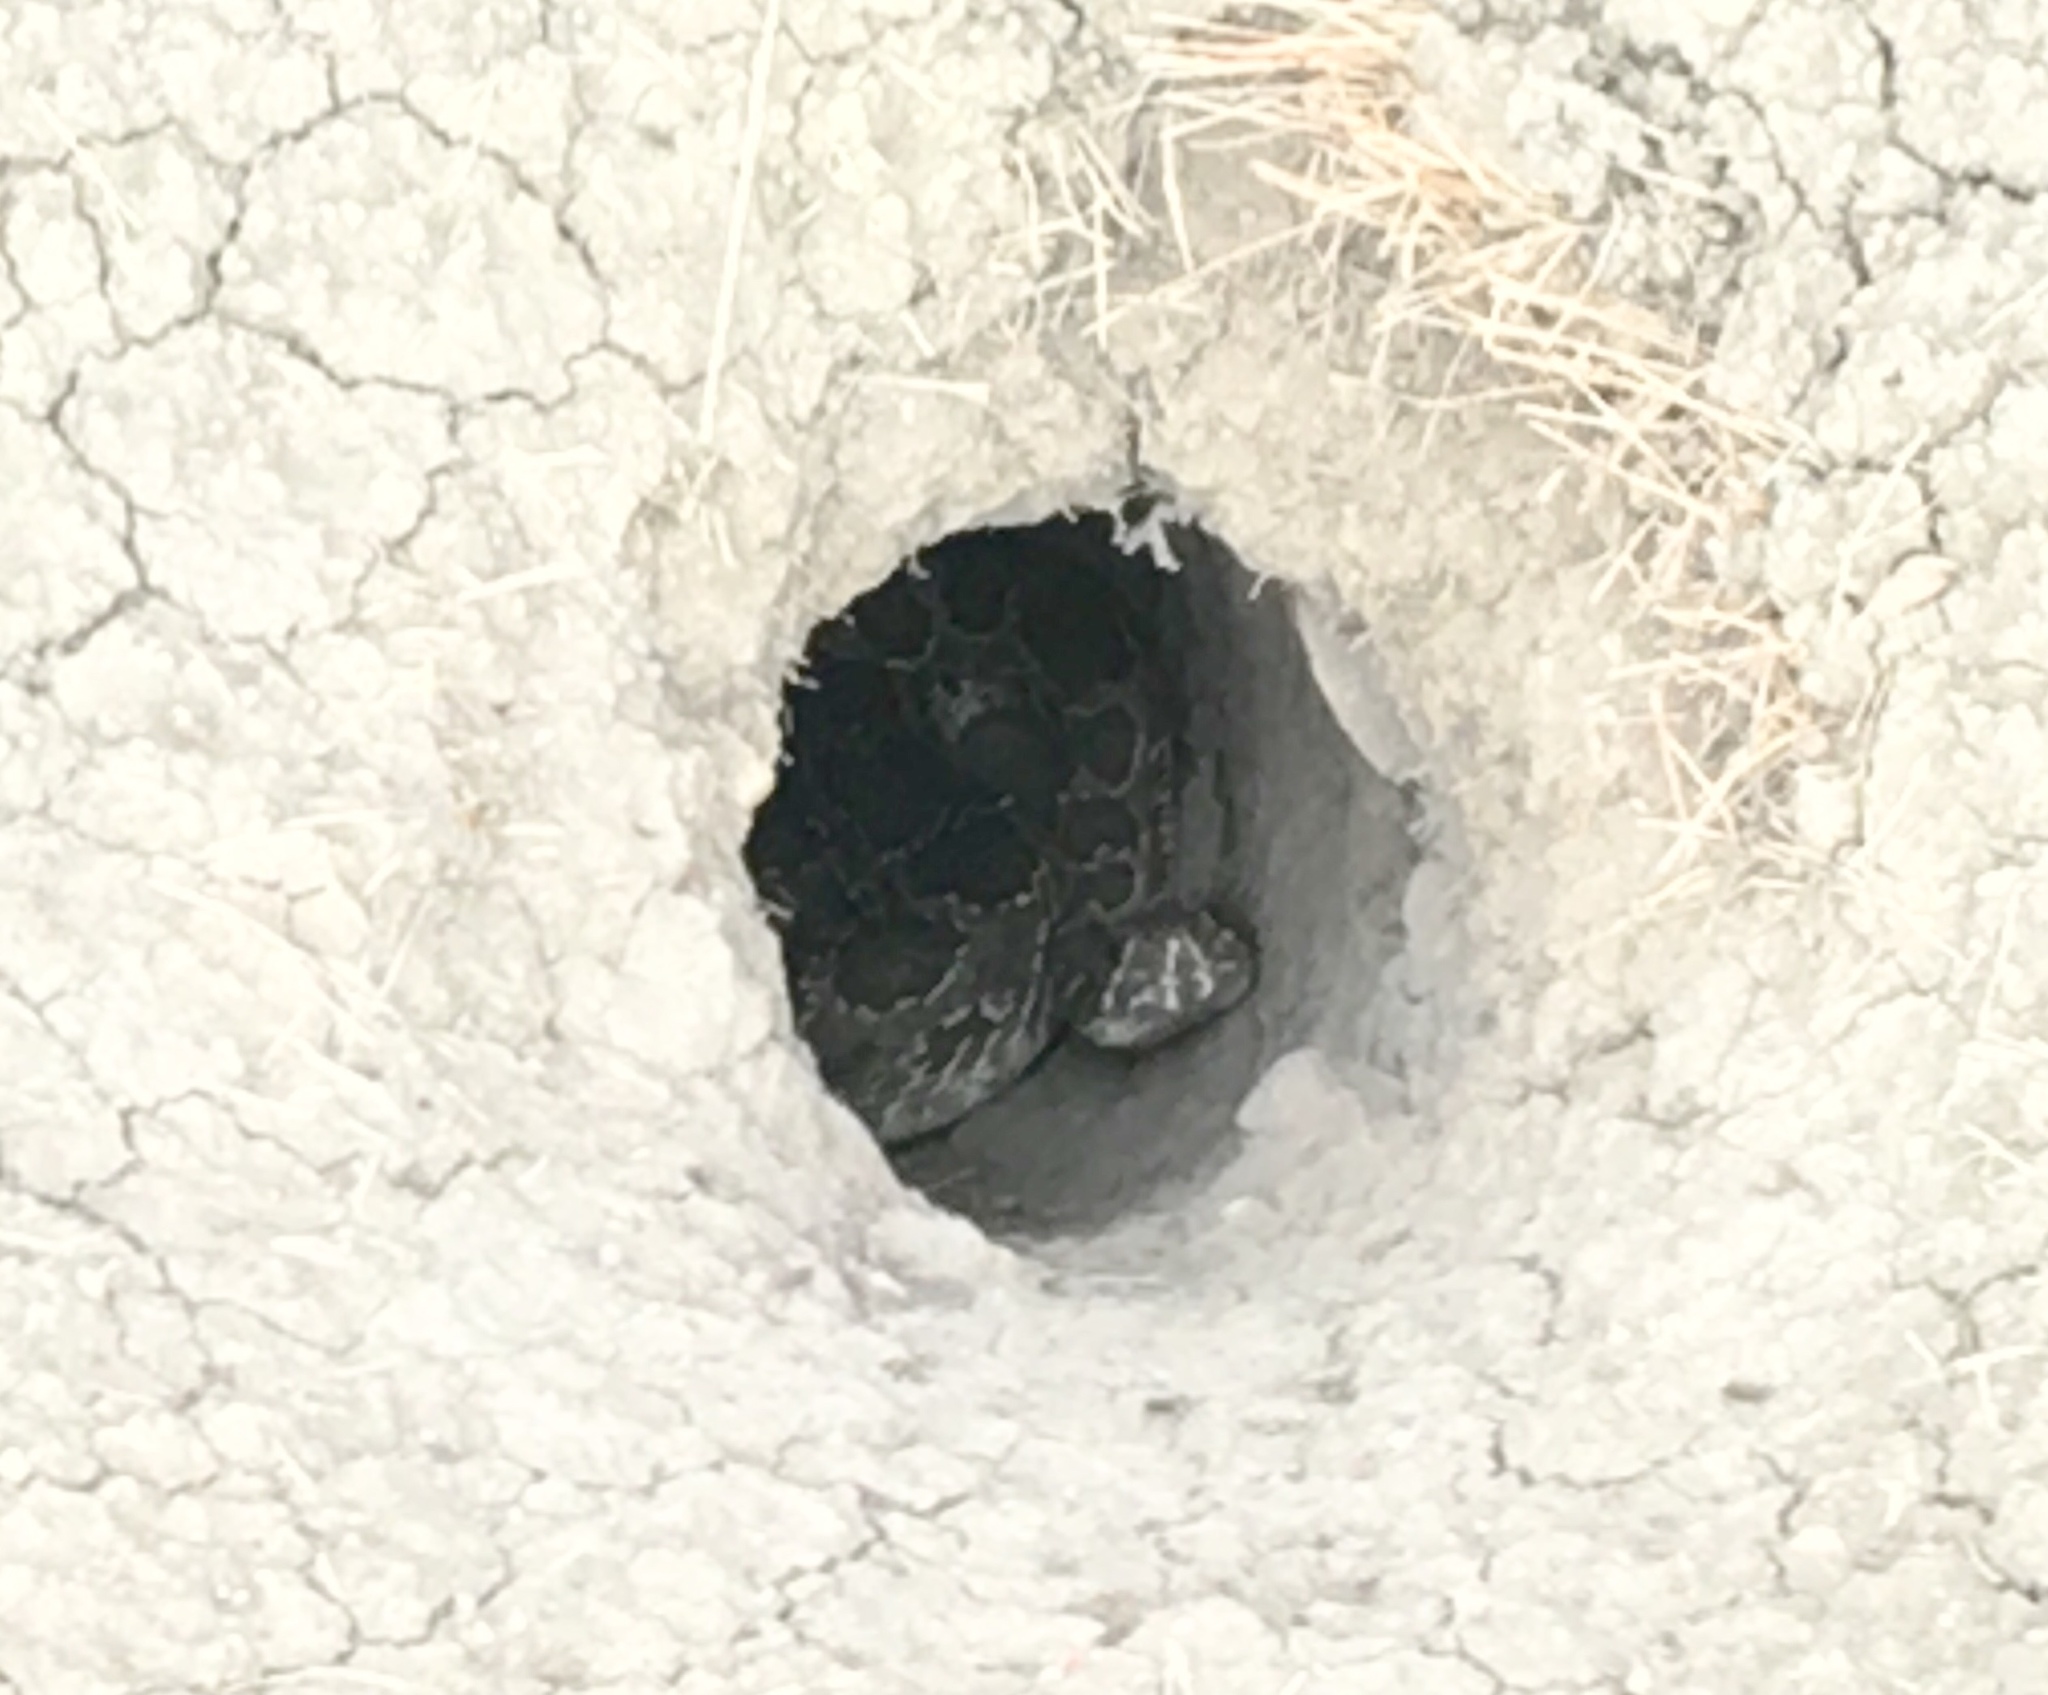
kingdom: Animalia
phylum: Chordata
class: Squamata
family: Viperidae
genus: Crotalus
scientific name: Crotalus viridis
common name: Prairie rattlesnake
